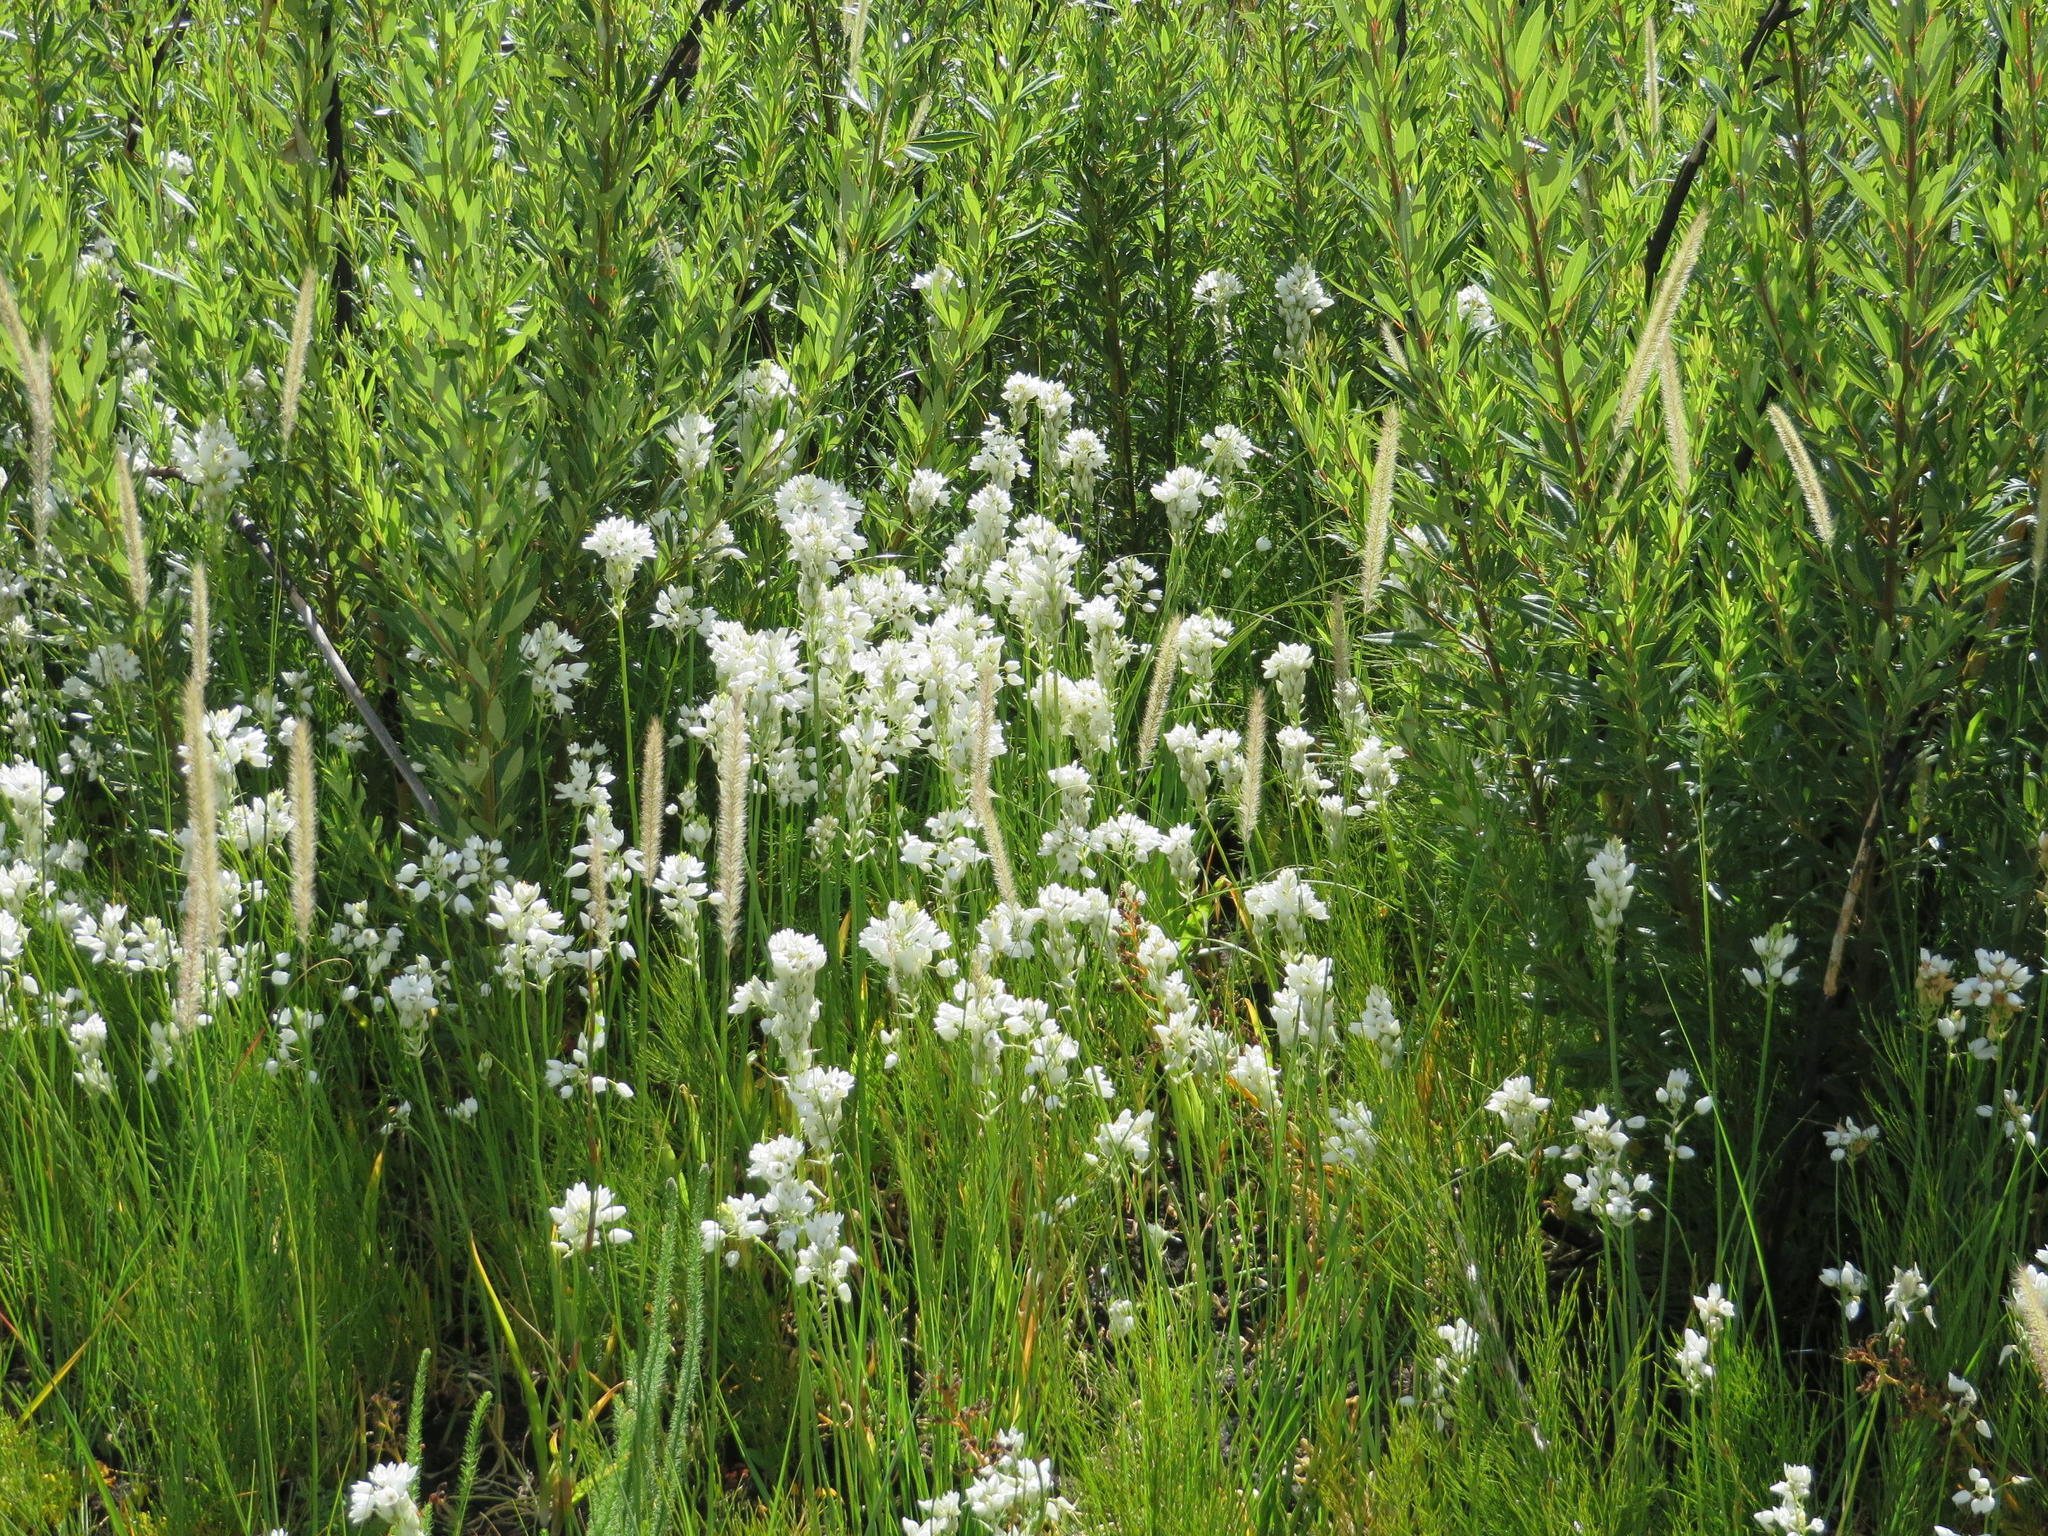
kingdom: Plantae
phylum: Tracheophyta
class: Liliopsida
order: Asparagales
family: Asparagaceae
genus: Ornithogalum
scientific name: Ornithogalum thyrsoides
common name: Chincherinchee
